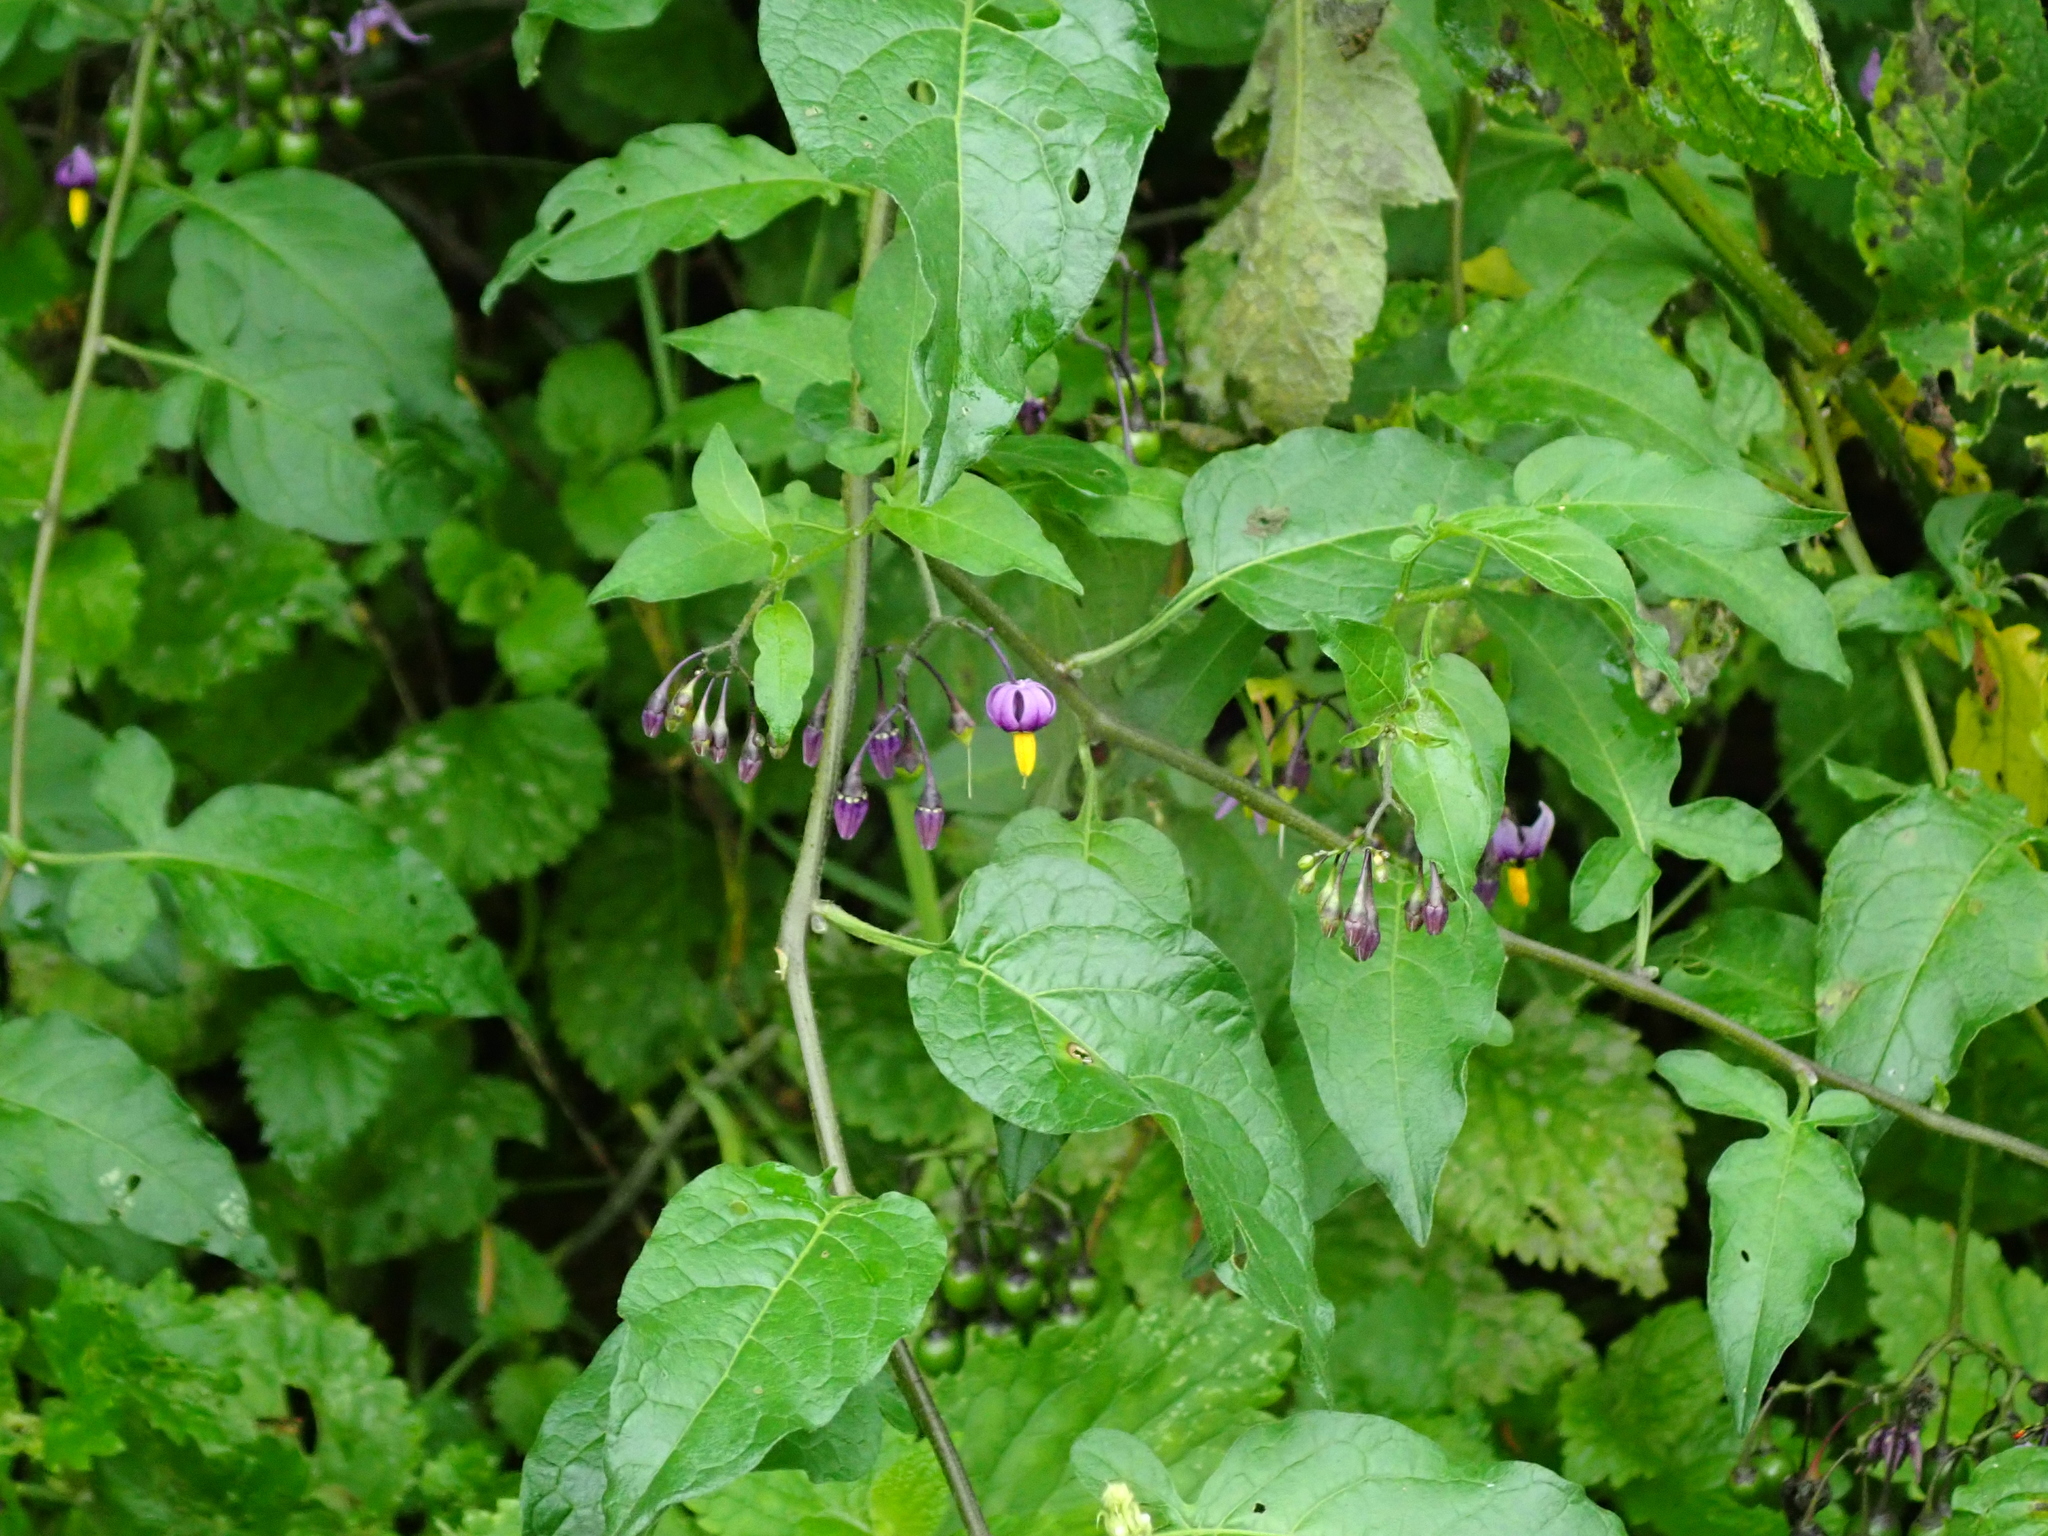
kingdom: Plantae
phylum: Tracheophyta
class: Magnoliopsida
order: Solanales
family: Solanaceae
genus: Solanum
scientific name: Solanum dulcamara
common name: Climbing nightshade
